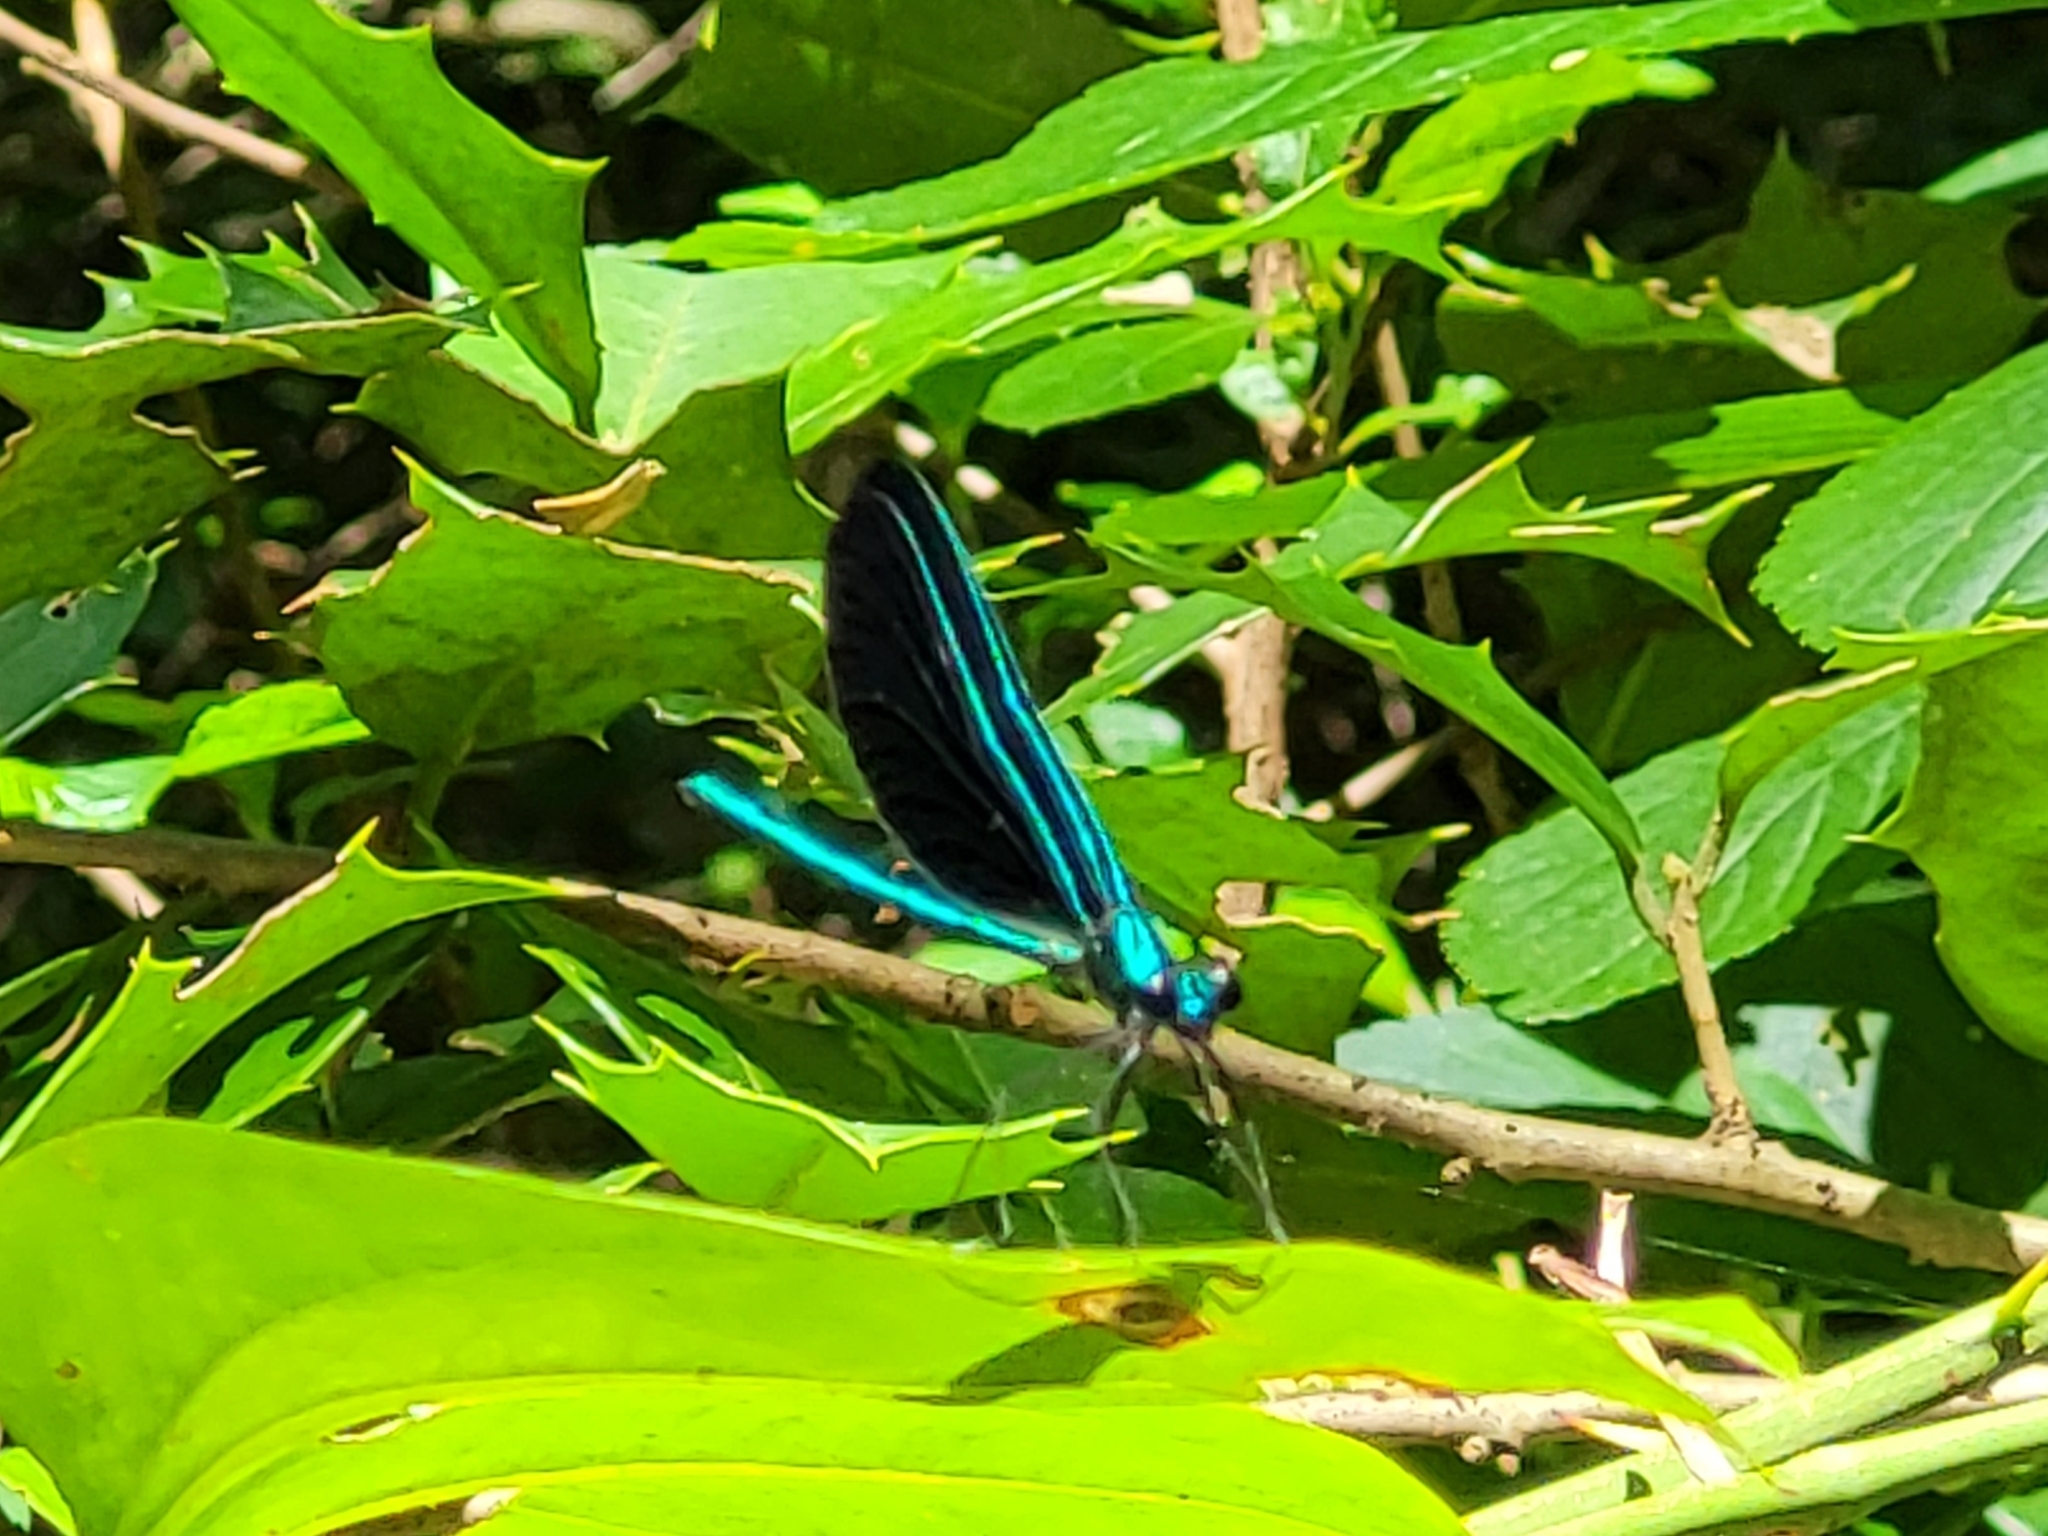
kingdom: Animalia
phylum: Arthropoda
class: Insecta
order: Odonata
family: Calopterygidae
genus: Calopteryx
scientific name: Calopteryx maculata
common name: Ebony jewelwing
